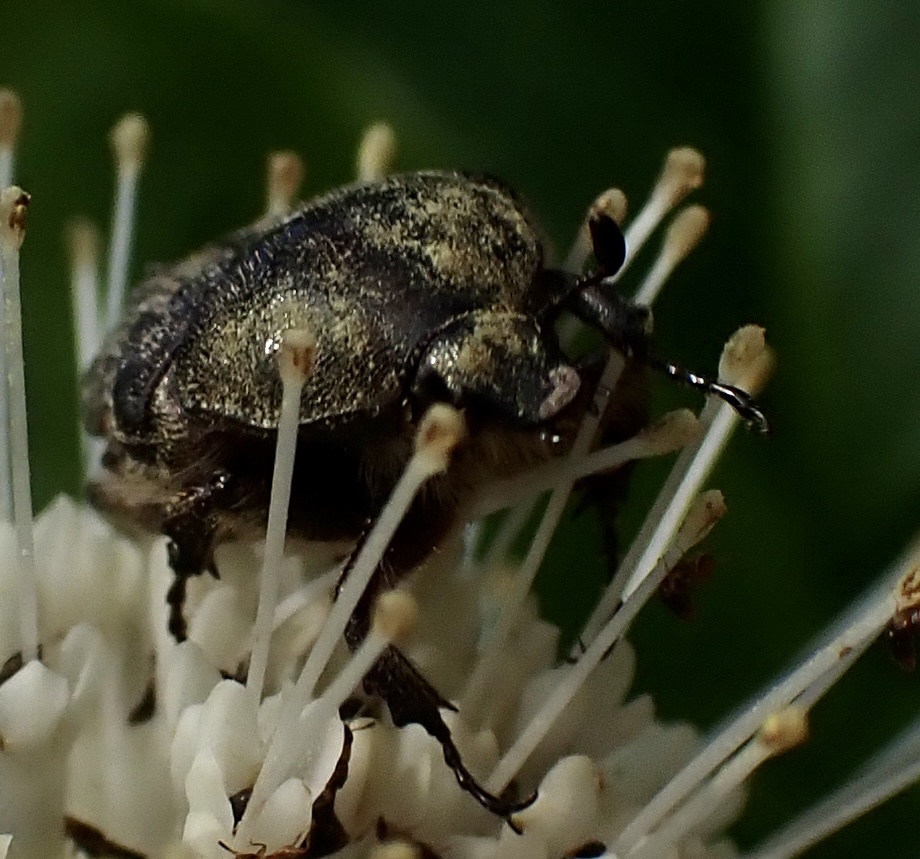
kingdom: Animalia
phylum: Arthropoda
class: Insecta
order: Coleoptera
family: Scarabaeidae
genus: Euphoria
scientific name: Euphoria sepulcralis
